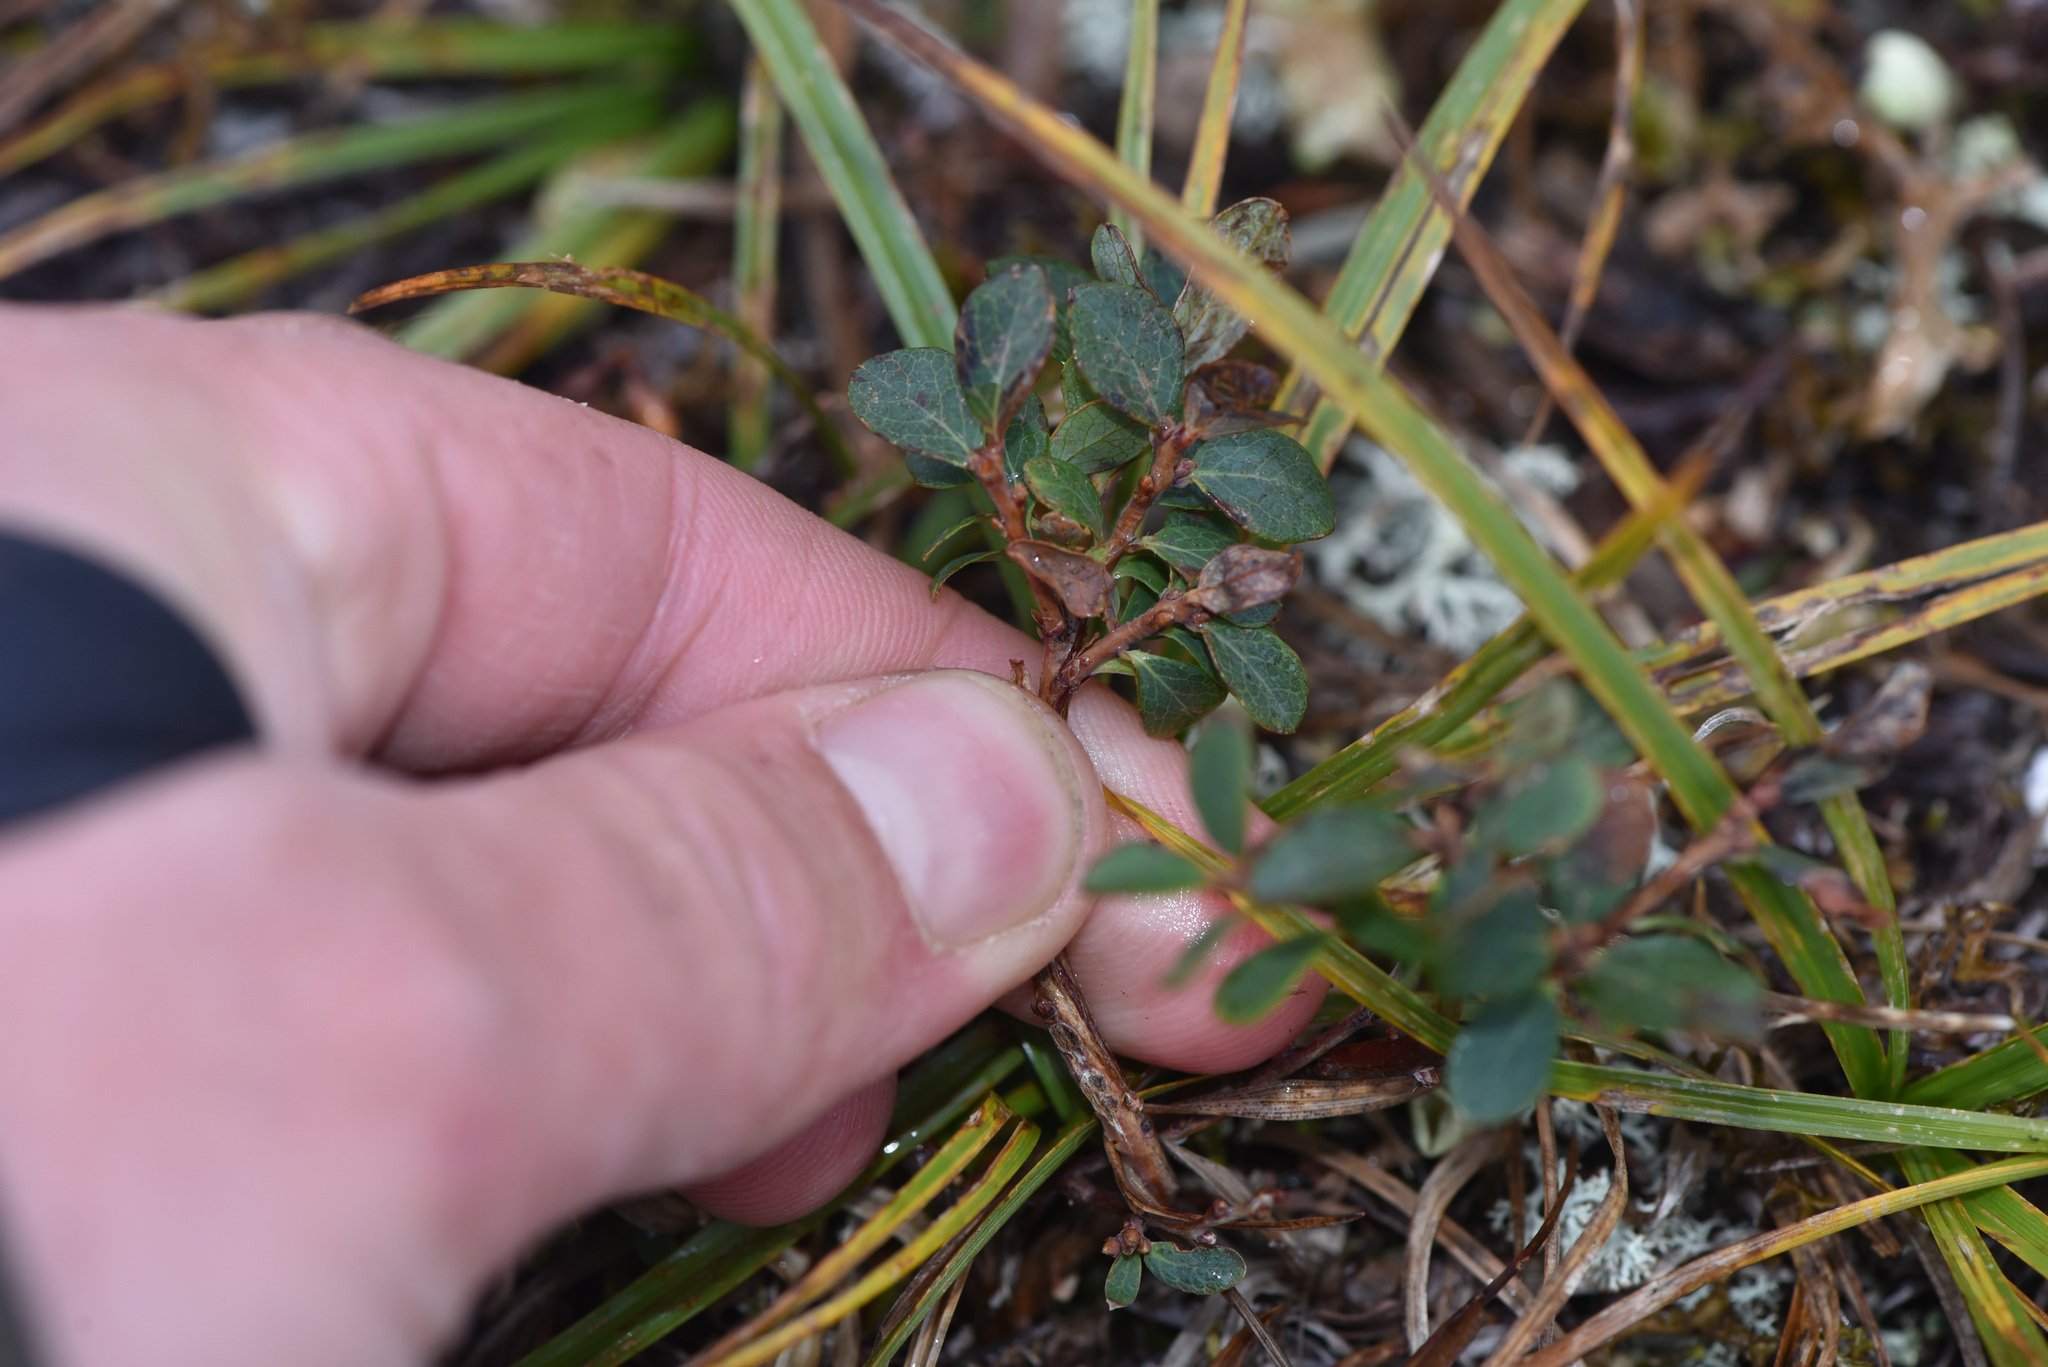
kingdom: Plantae
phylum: Tracheophyta
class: Magnoliopsida
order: Ericales
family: Ericaceae
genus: Vaccinium
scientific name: Vaccinium uliginosum
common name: Bog bilberry
